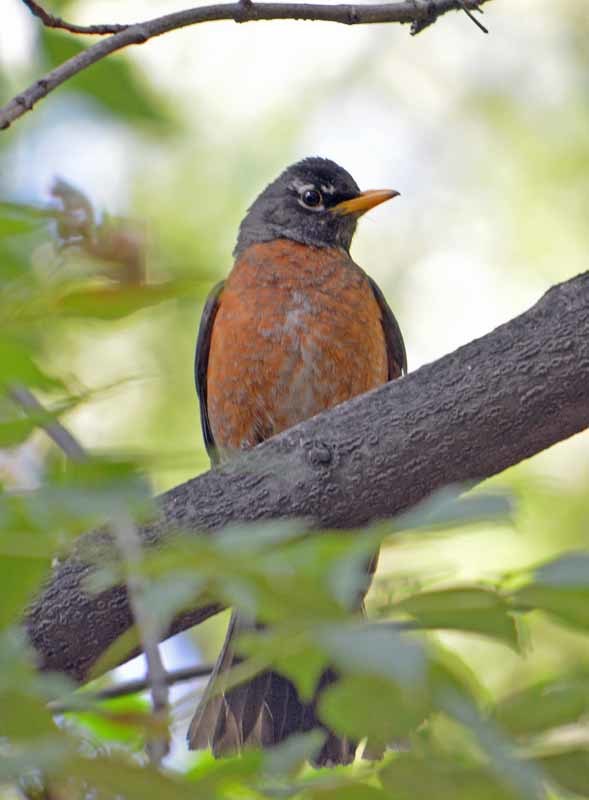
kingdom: Animalia
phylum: Chordata
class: Aves
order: Passeriformes
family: Turdidae
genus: Turdus
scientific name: Turdus migratorius
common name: American robin
